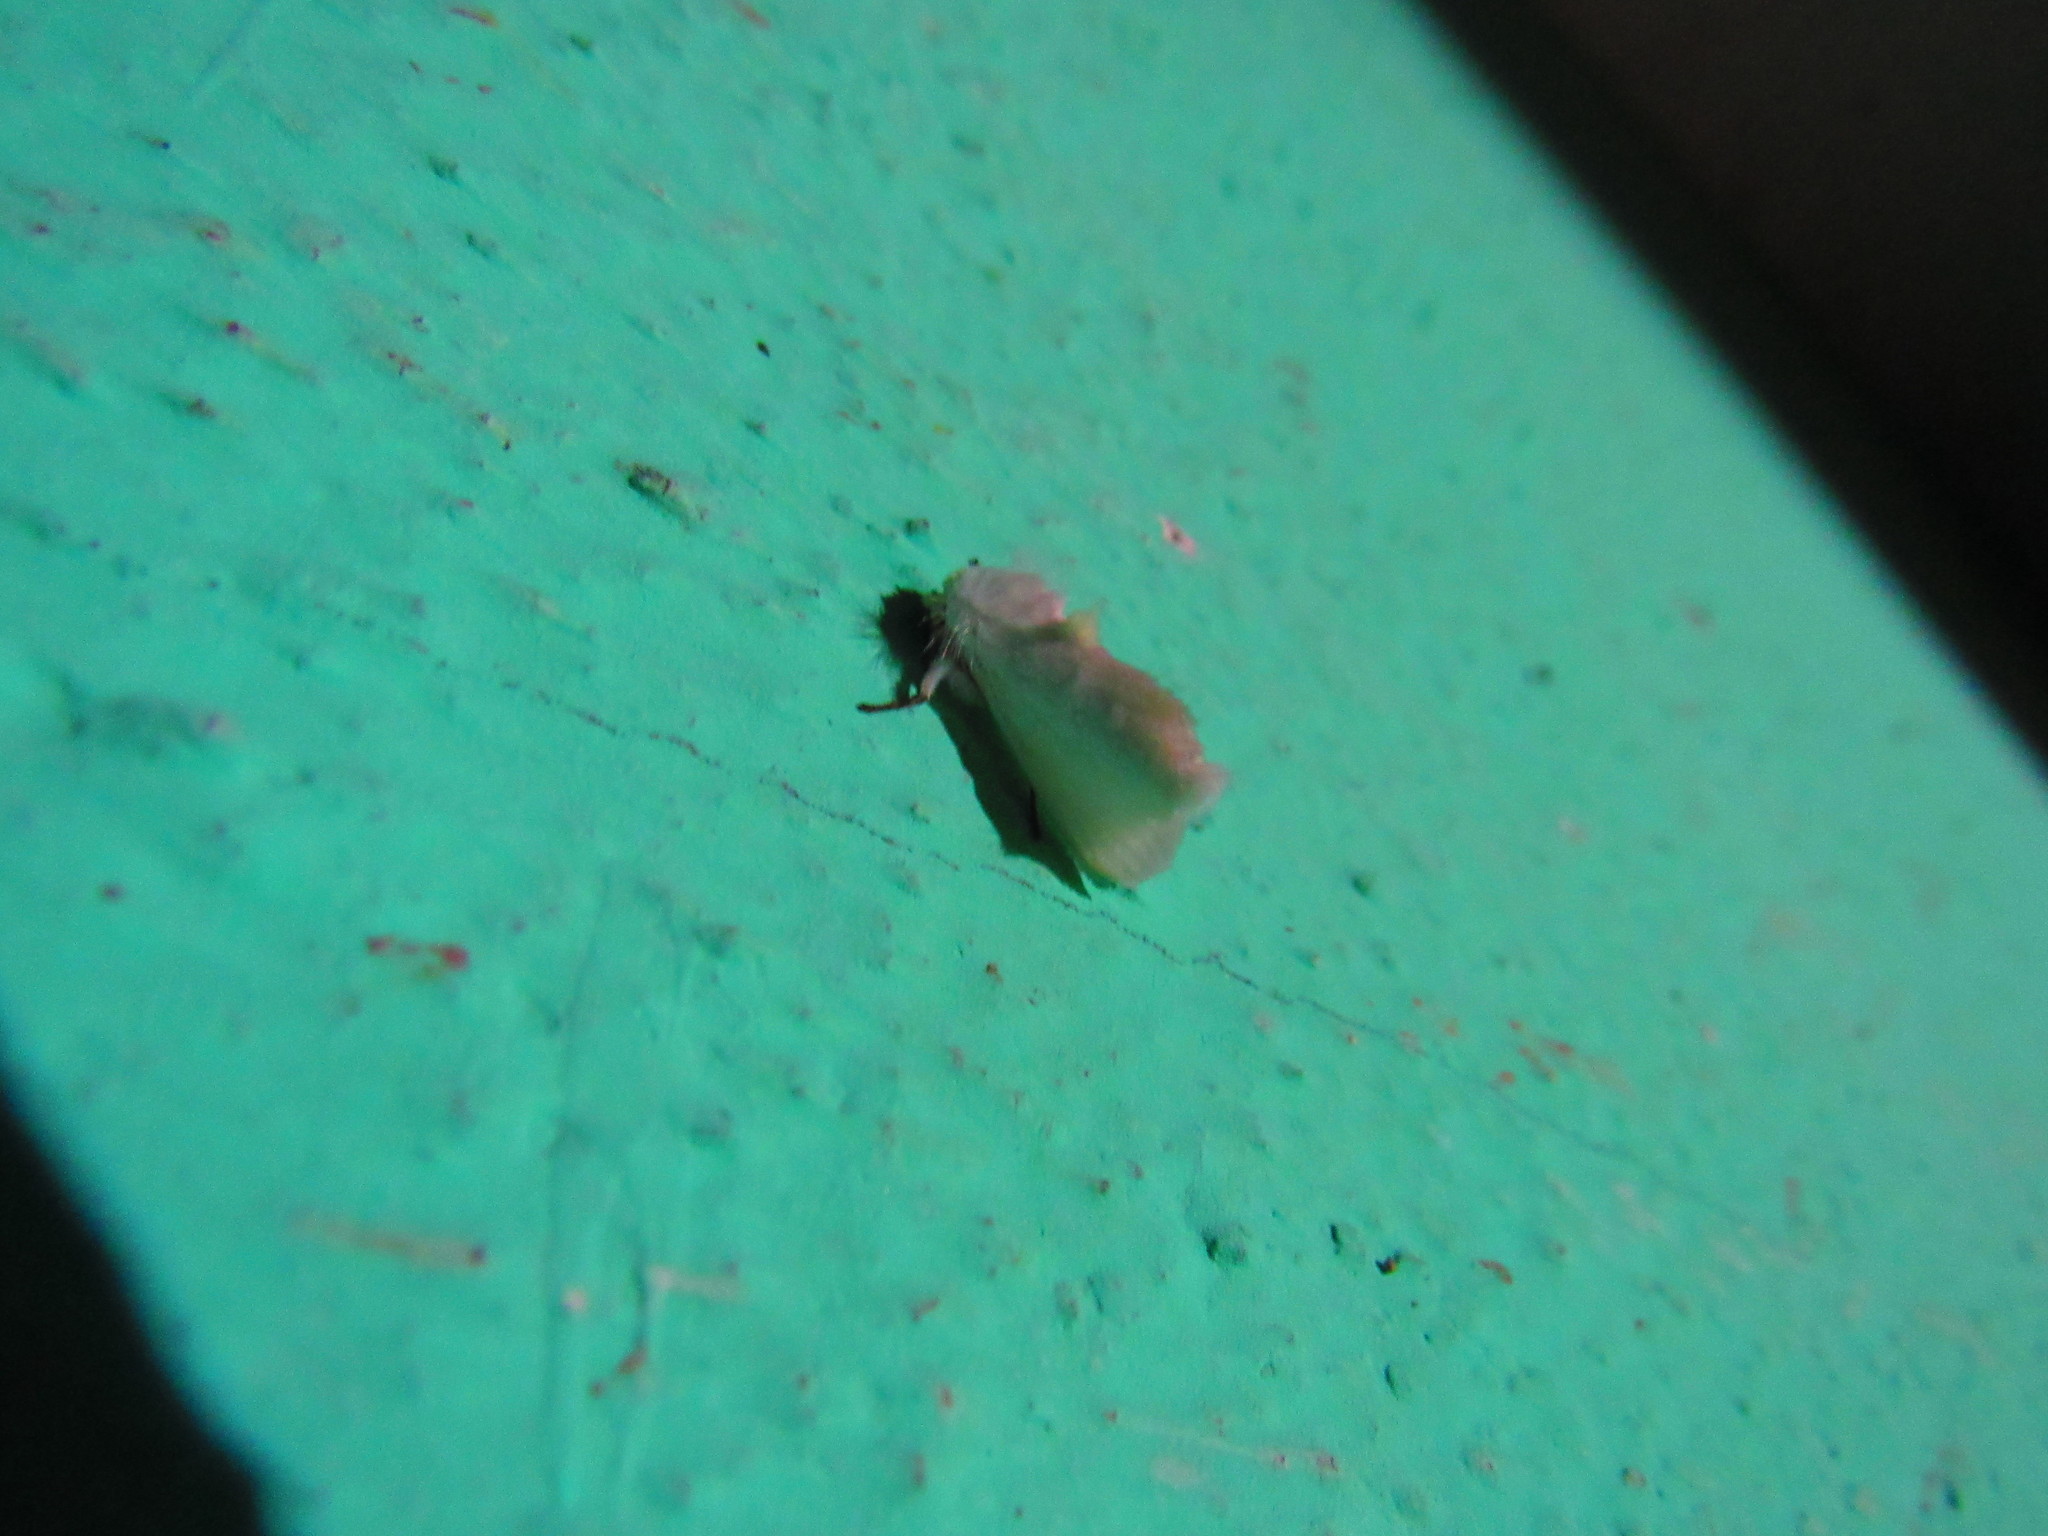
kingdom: Animalia
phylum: Arthropoda
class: Insecta
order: Lepidoptera
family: Megalopygidae
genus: Norape
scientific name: Norape virgo
